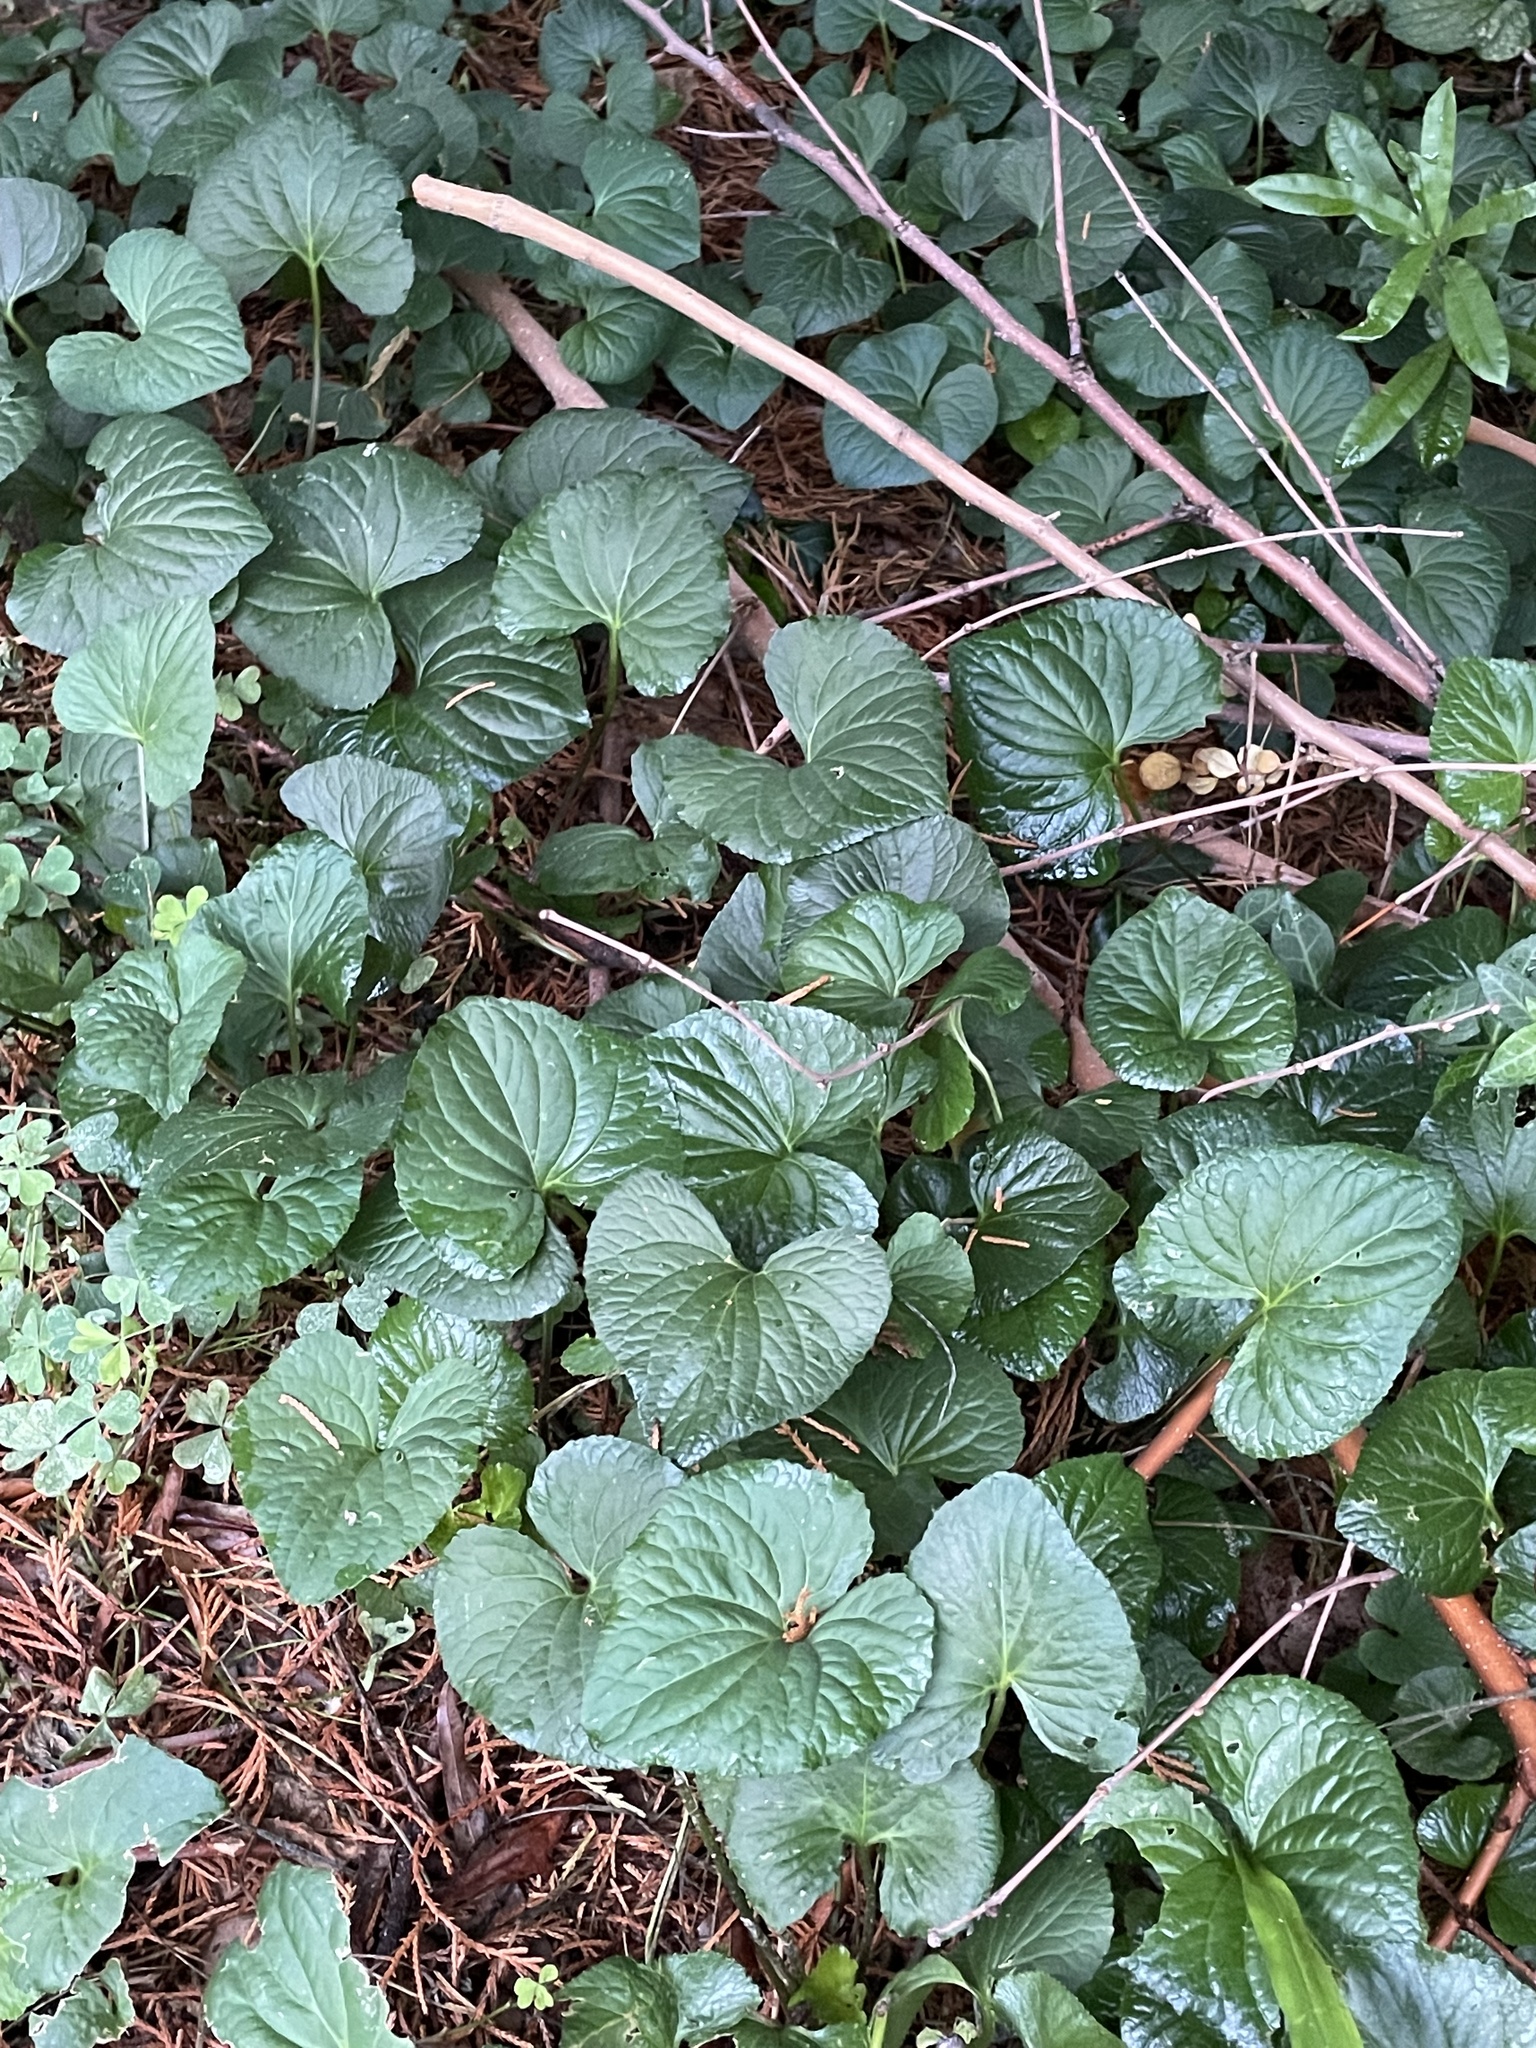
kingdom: Plantae
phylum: Tracheophyta
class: Magnoliopsida
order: Malpighiales
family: Violaceae
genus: Viola
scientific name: Viola sororia
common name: Dooryard violet
